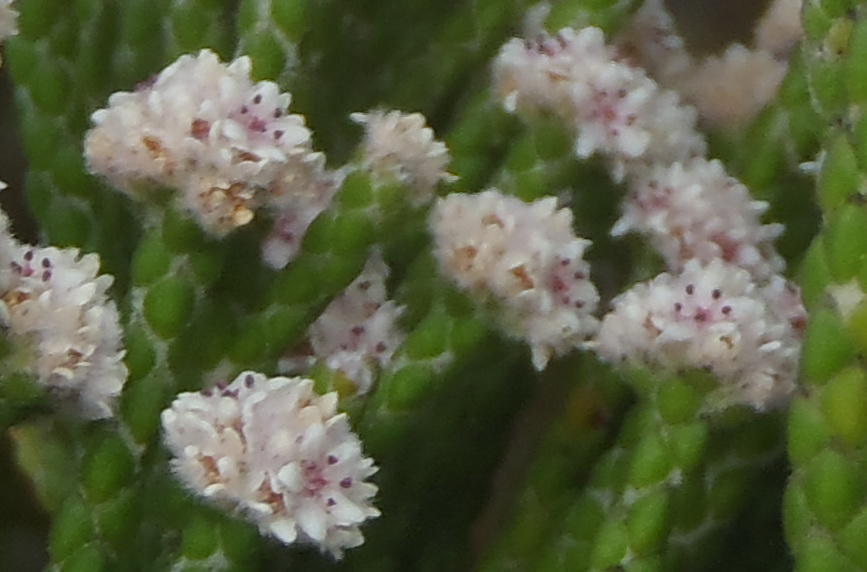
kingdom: Plantae
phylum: Tracheophyta
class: Magnoliopsida
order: Bruniales
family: Bruniaceae
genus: Brunia
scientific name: Brunia microphylla
